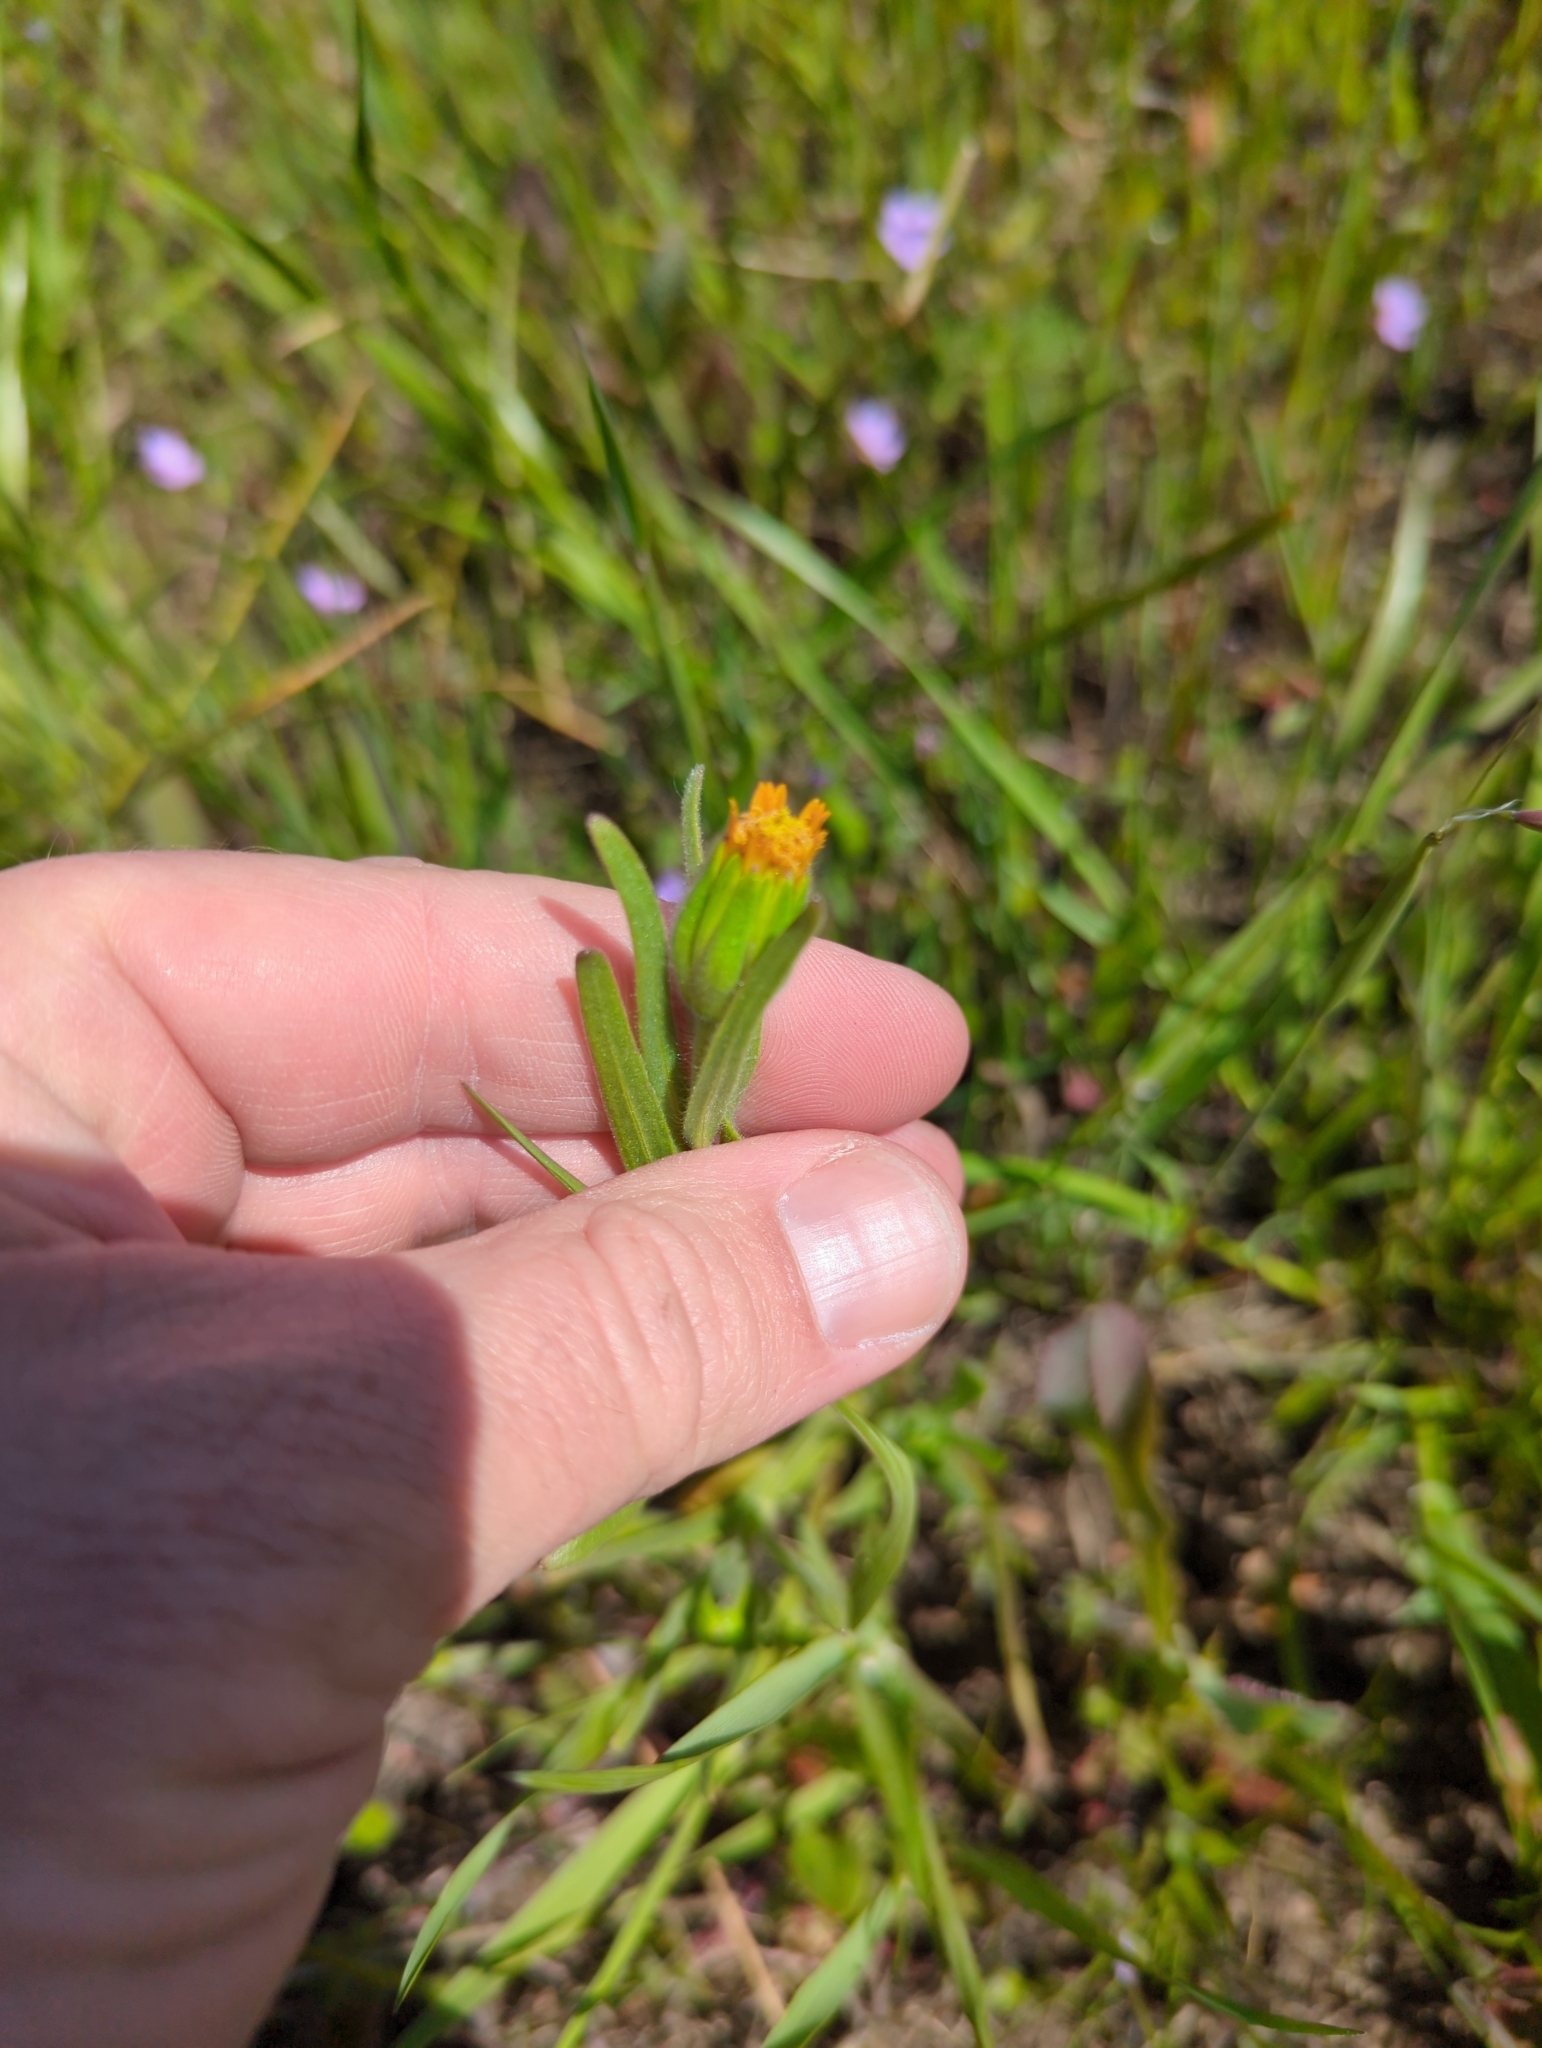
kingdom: Plantae
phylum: Tracheophyta
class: Magnoliopsida
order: Asterales
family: Asteraceae
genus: Achyrachaena
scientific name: Achyrachaena mollis
